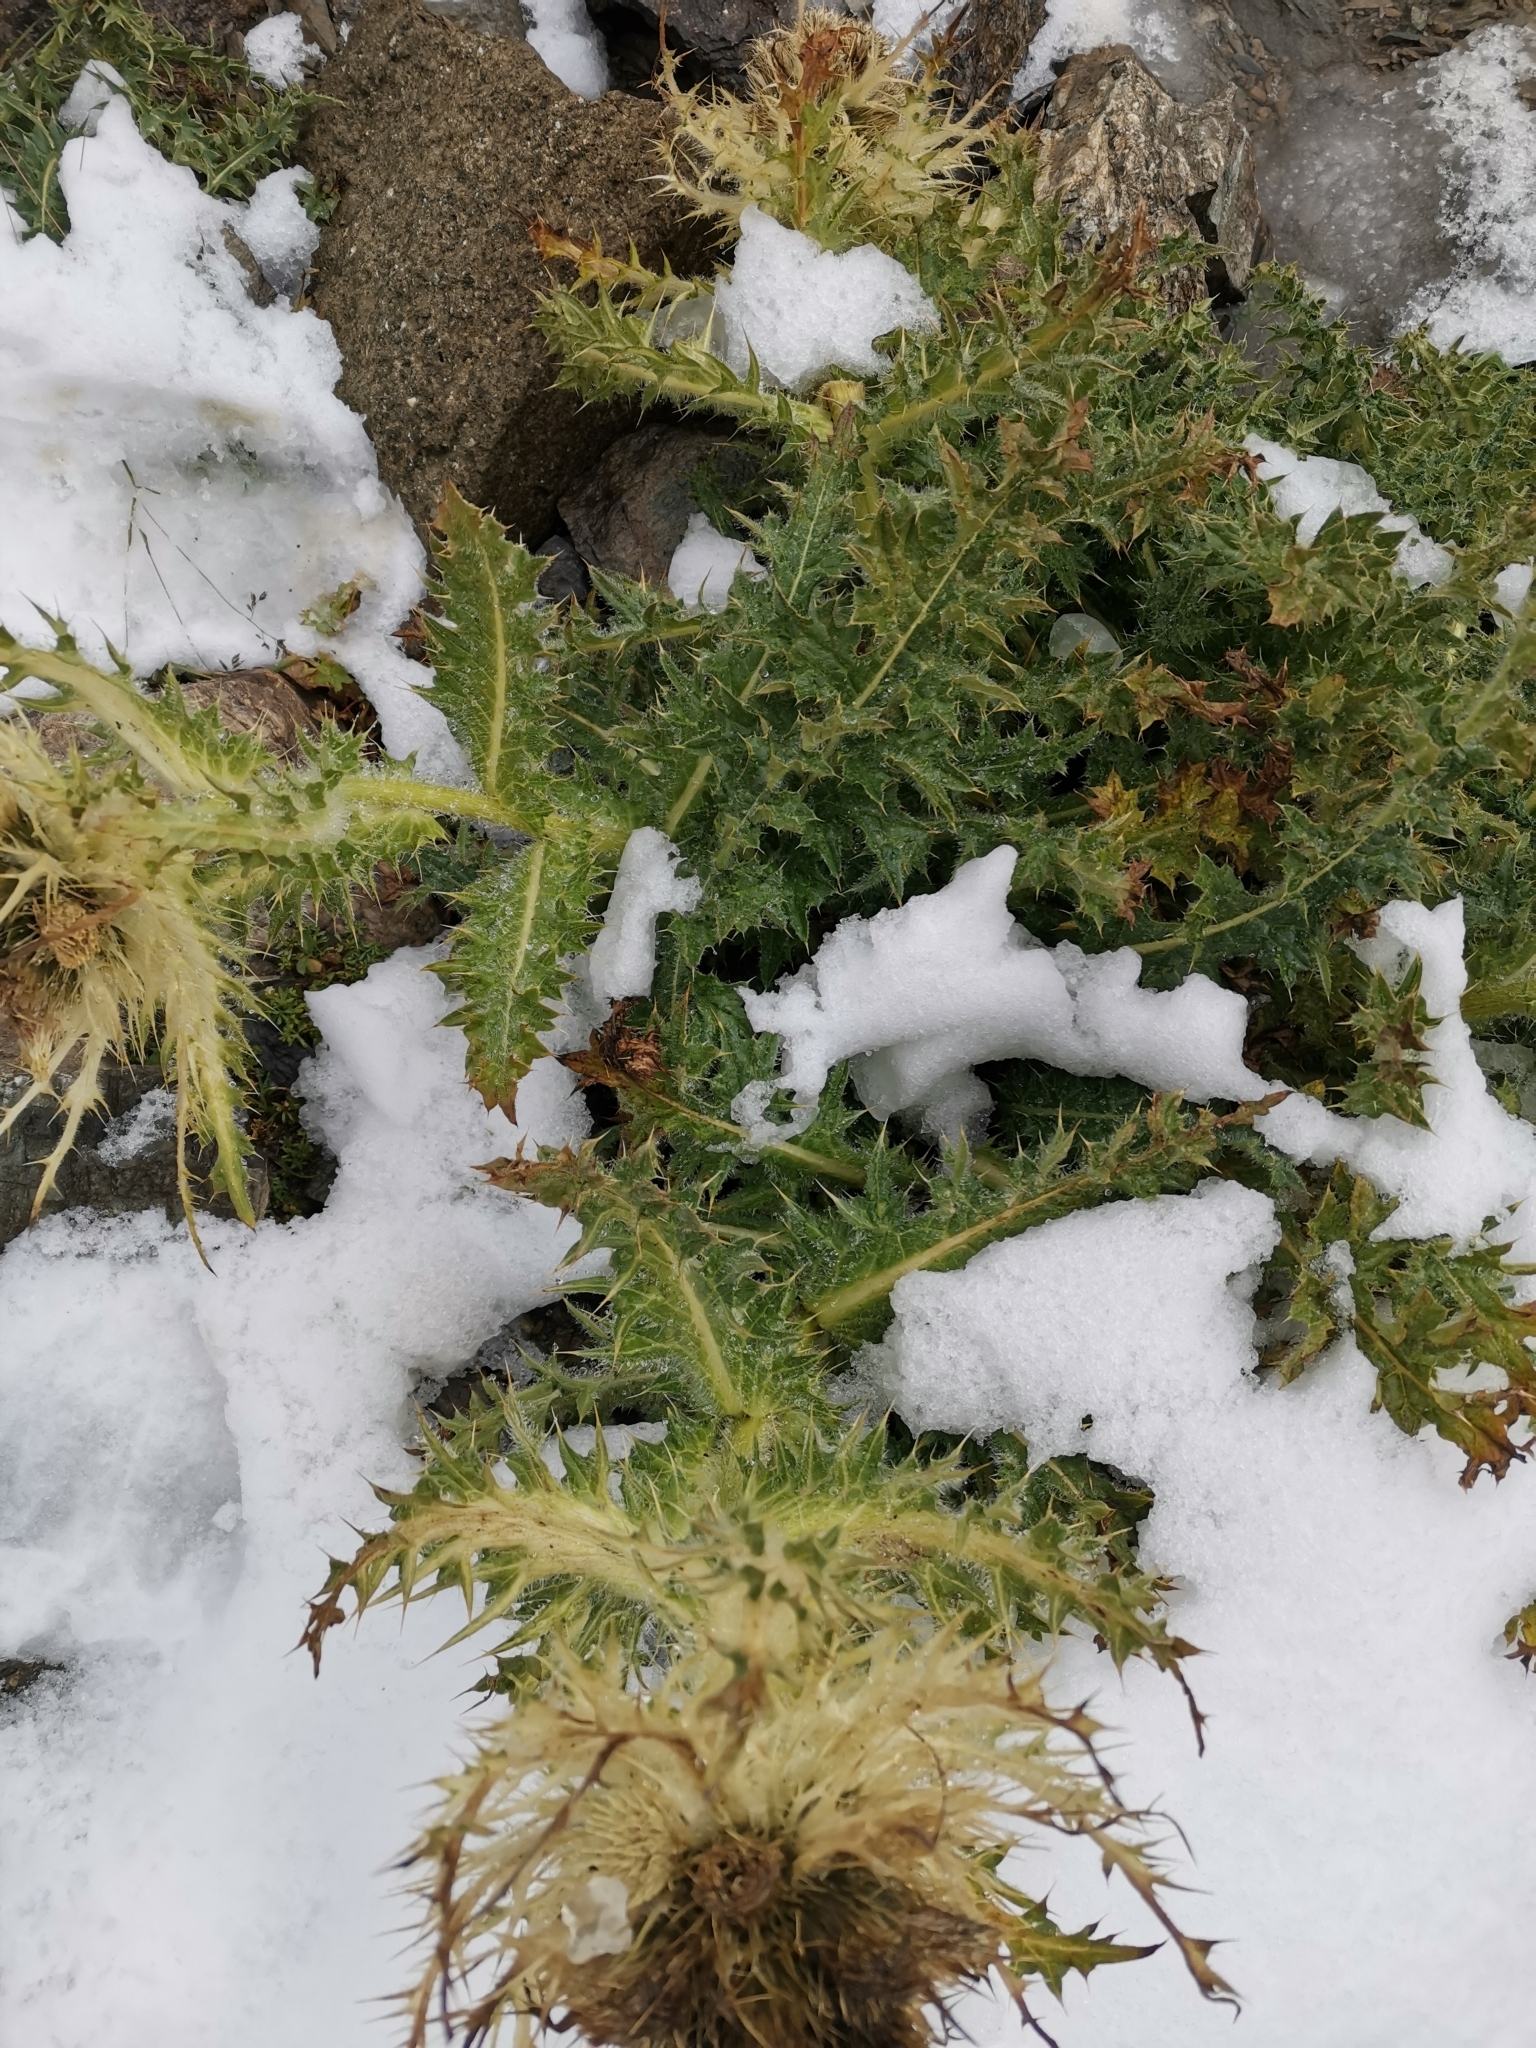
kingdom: Plantae
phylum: Tracheophyta
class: Magnoliopsida
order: Asterales
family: Asteraceae
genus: Cirsium
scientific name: Cirsium spinosissimum
